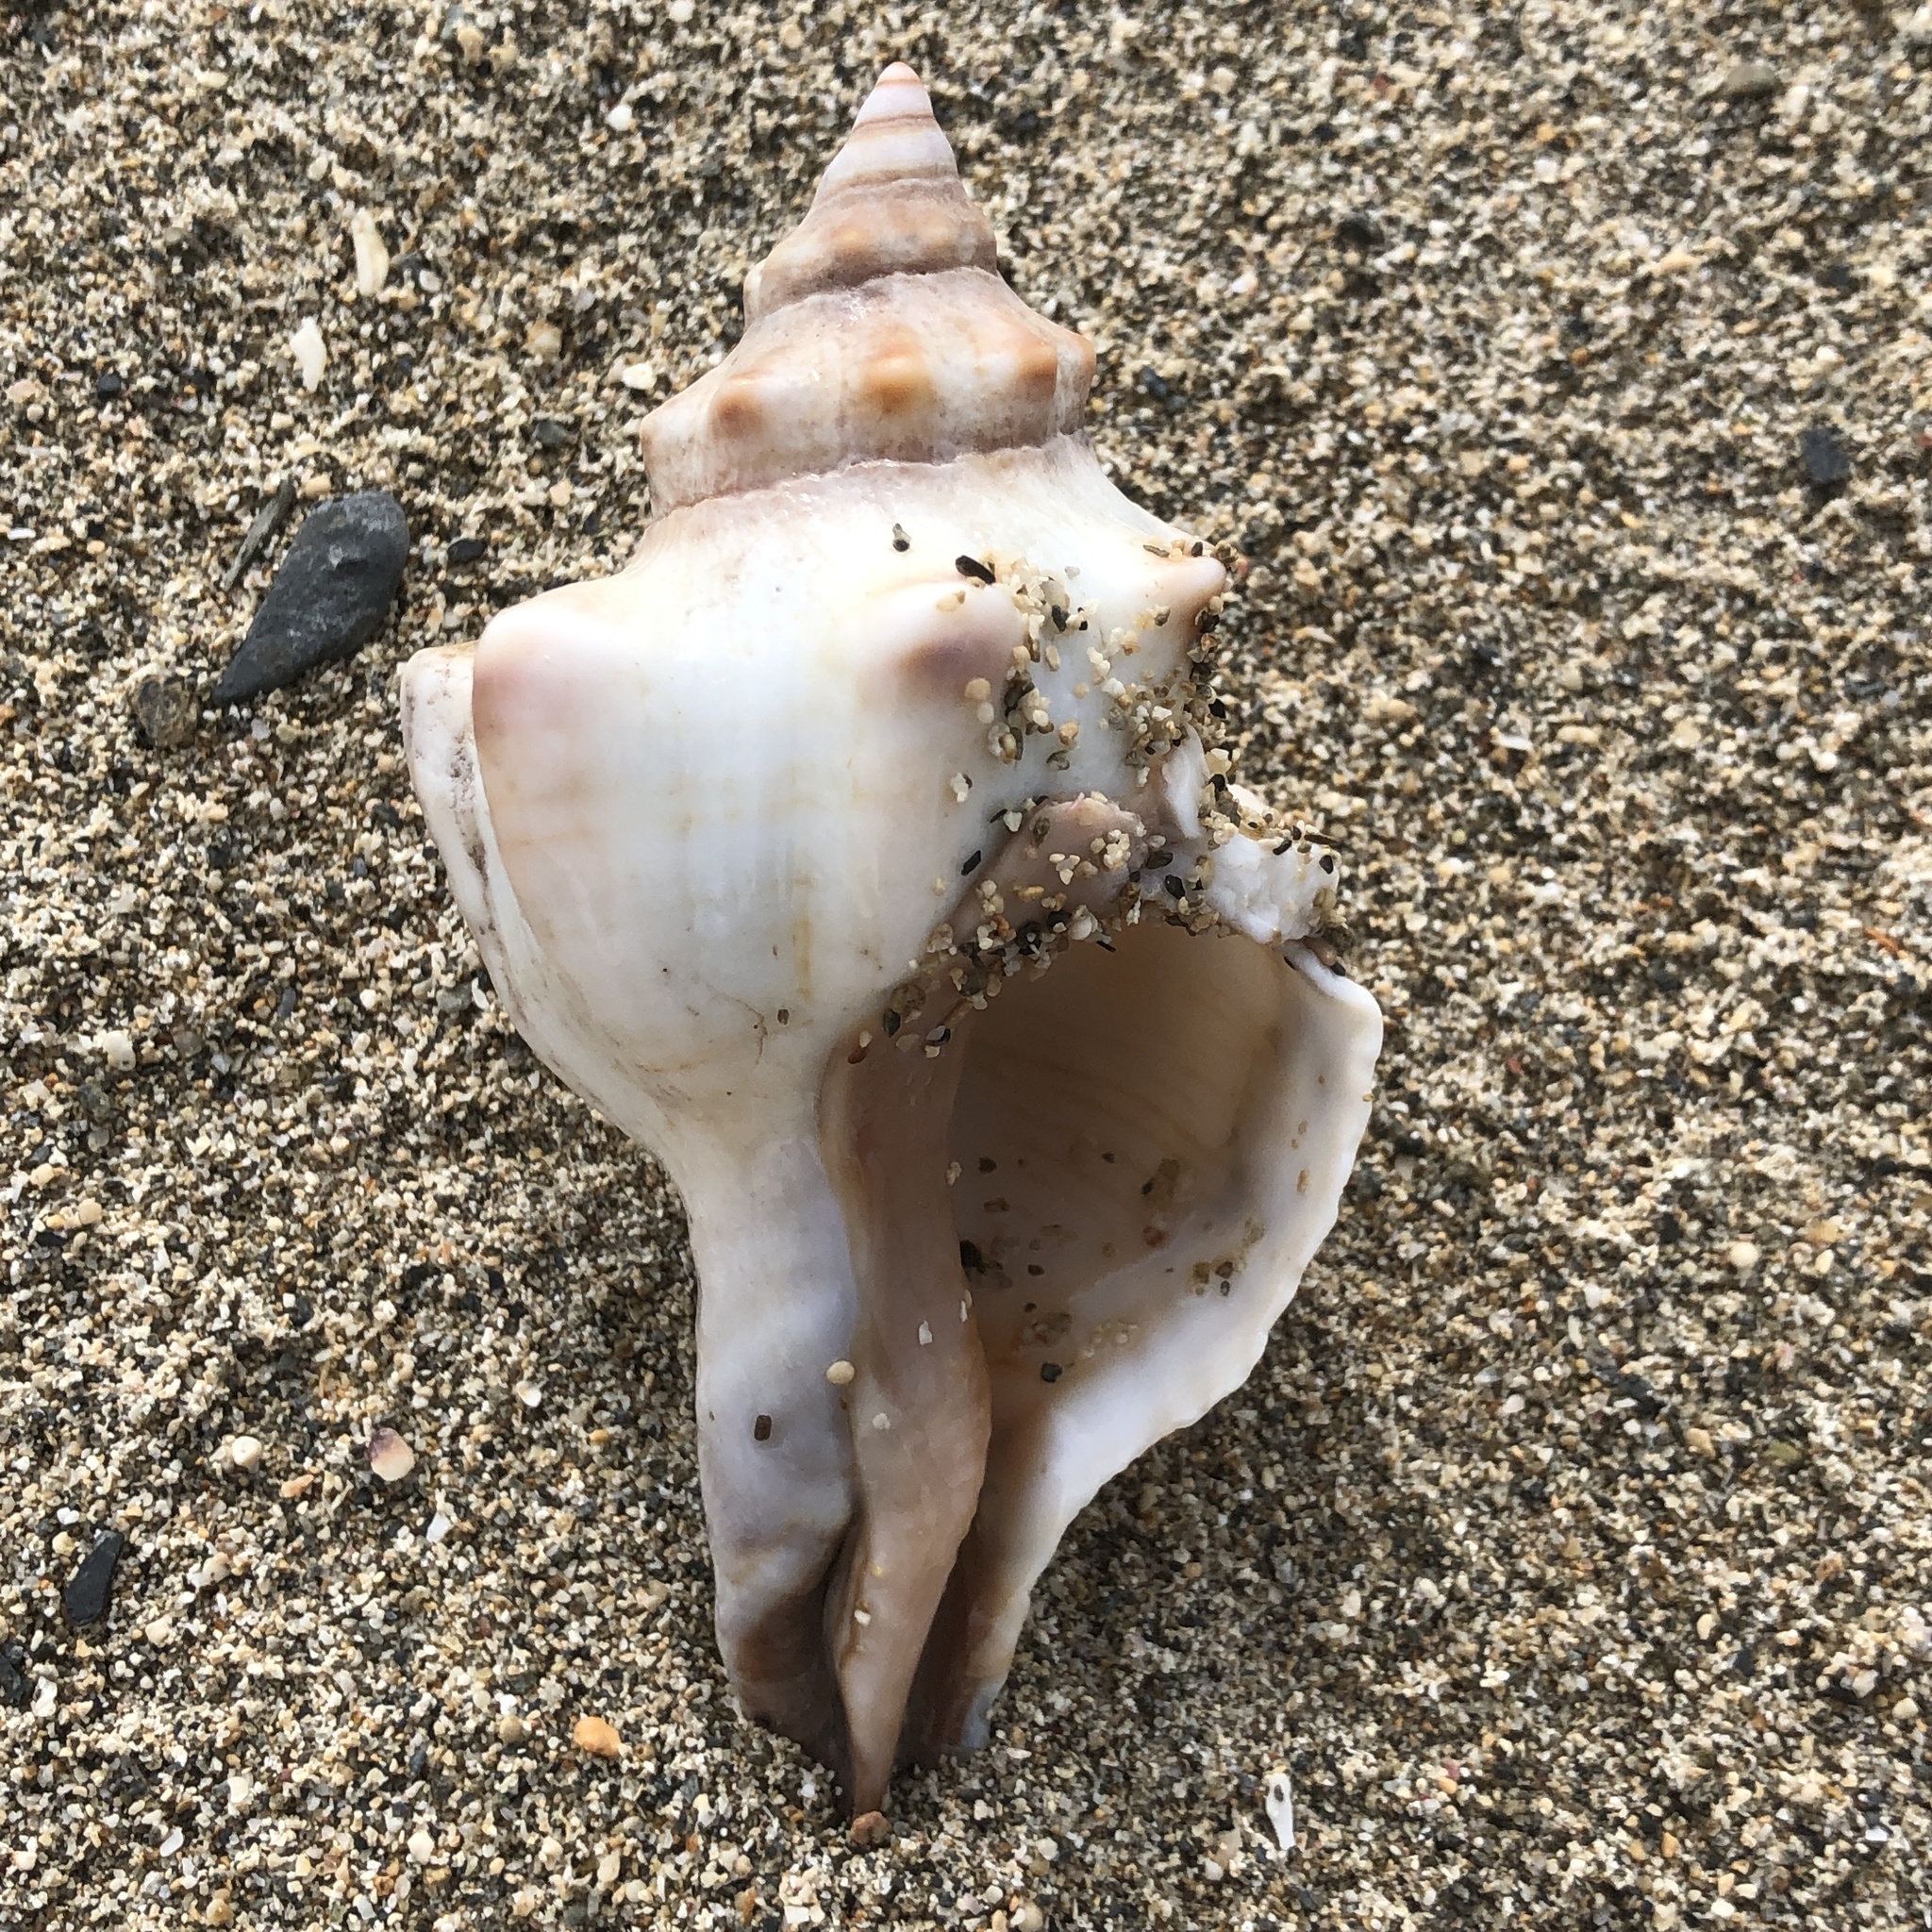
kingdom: Animalia
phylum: Mollusca
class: Gastropoda
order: Neogastropoda
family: Fasciolariidae
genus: Pleuroploca
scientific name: Pleuroploca trapezium
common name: Trapeze horseconch
